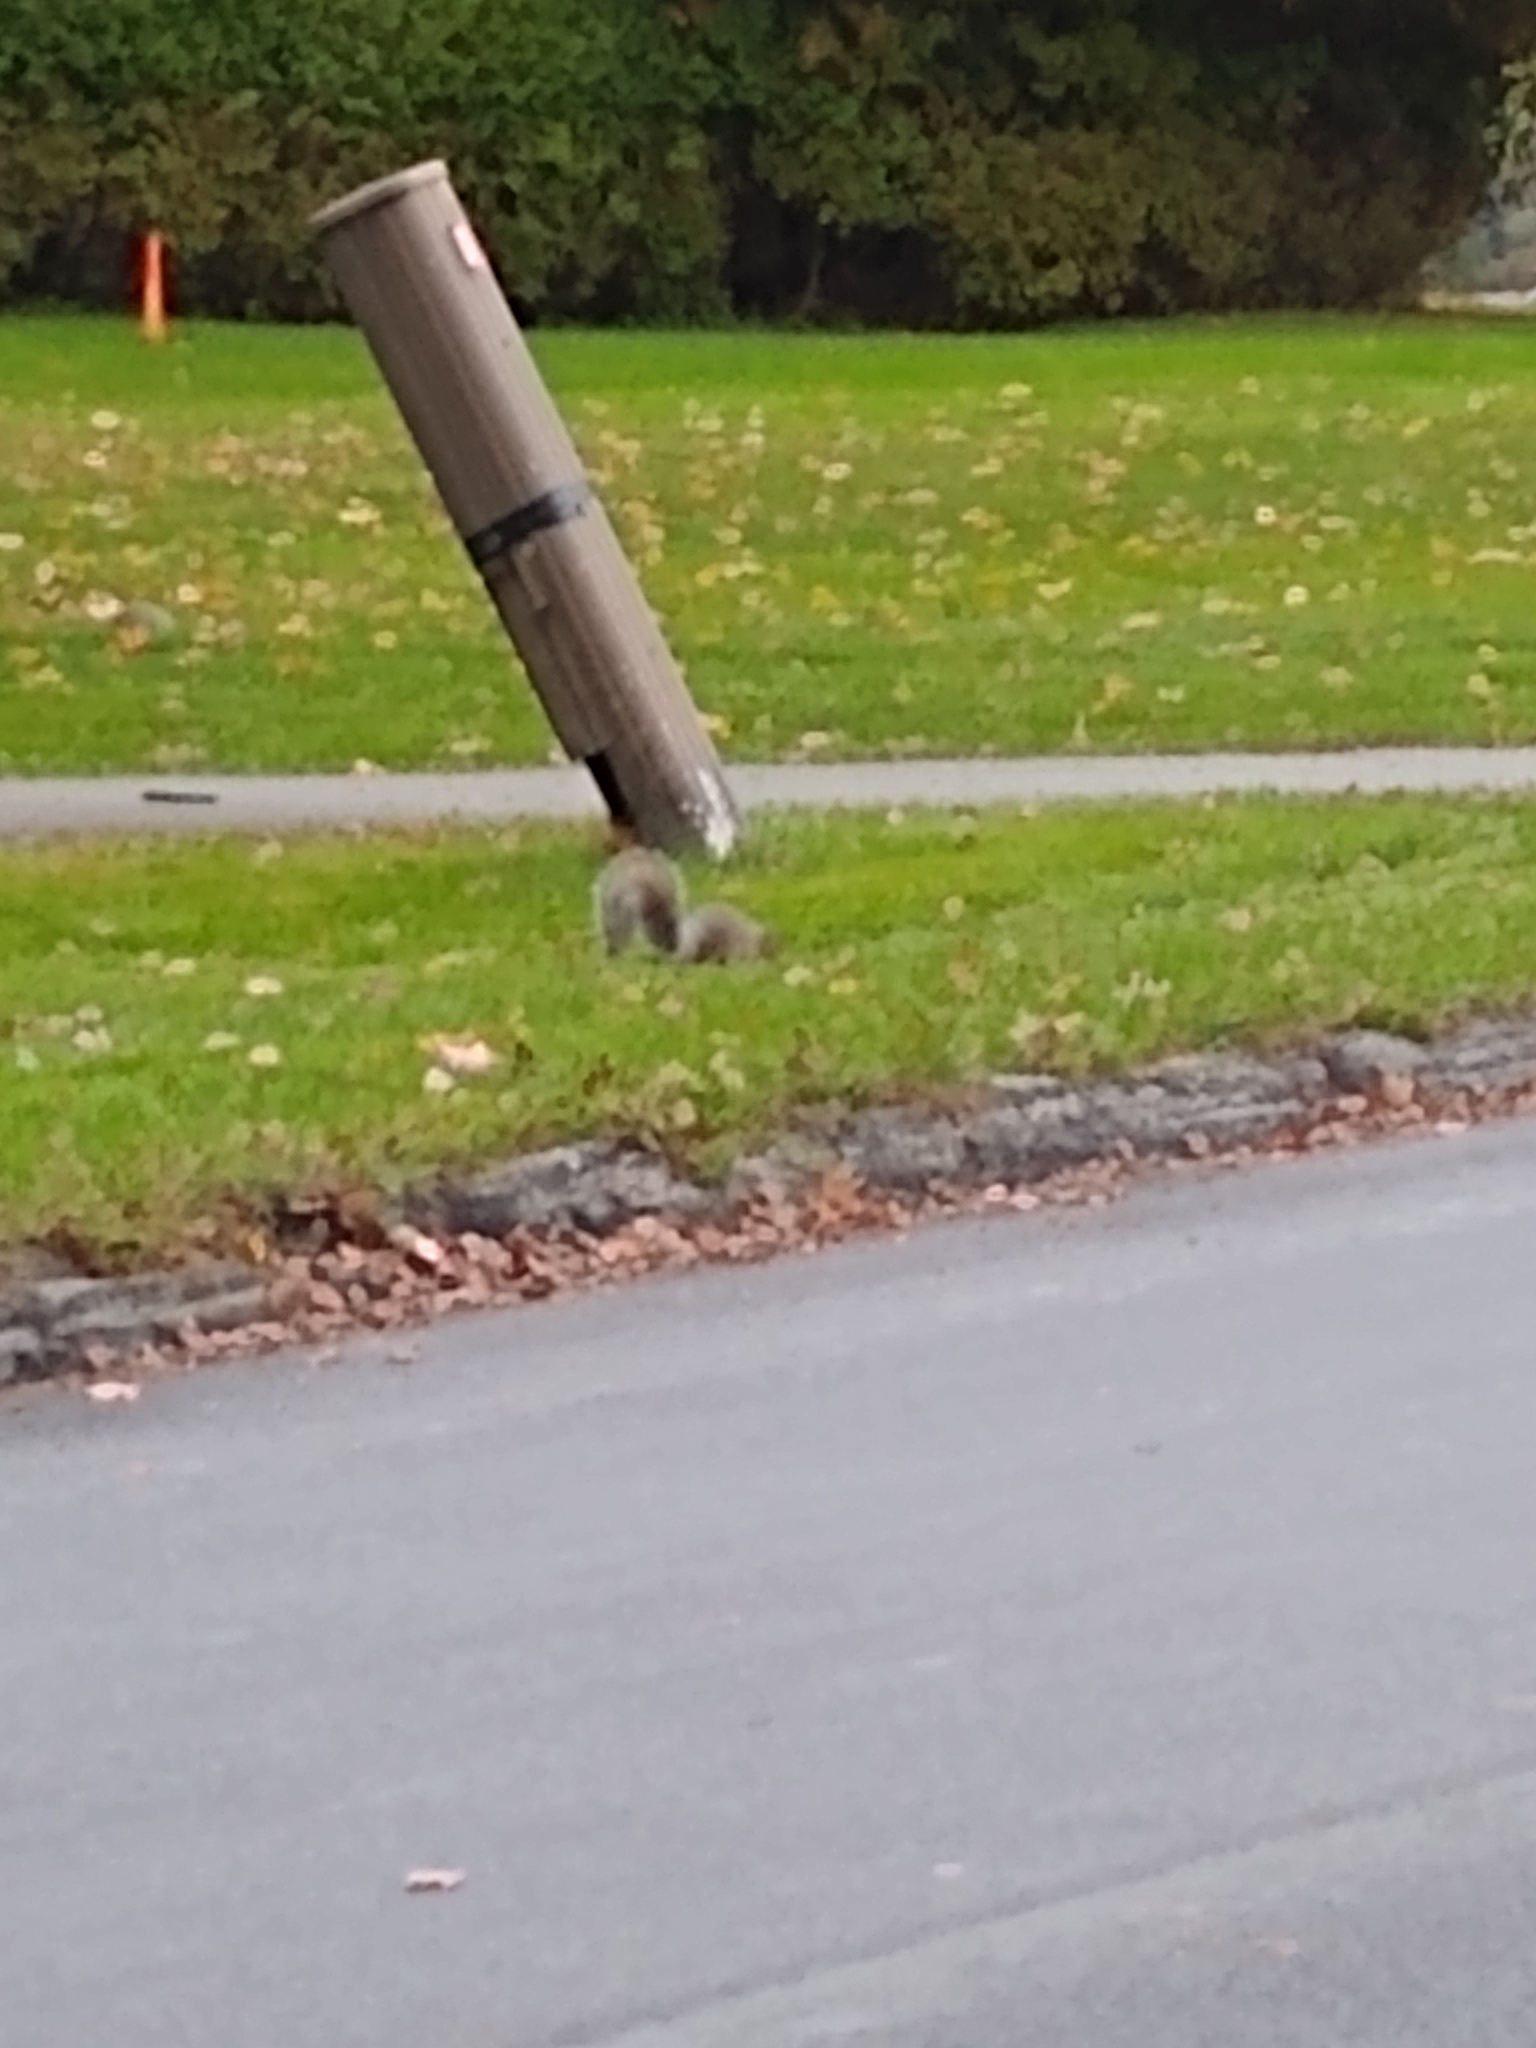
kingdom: Animalia
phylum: Chordata
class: Mammalia
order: Rodentia
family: Sciuridae
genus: Sciurus
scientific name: Sciurus carolinensis
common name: Eastern gray squirrel
